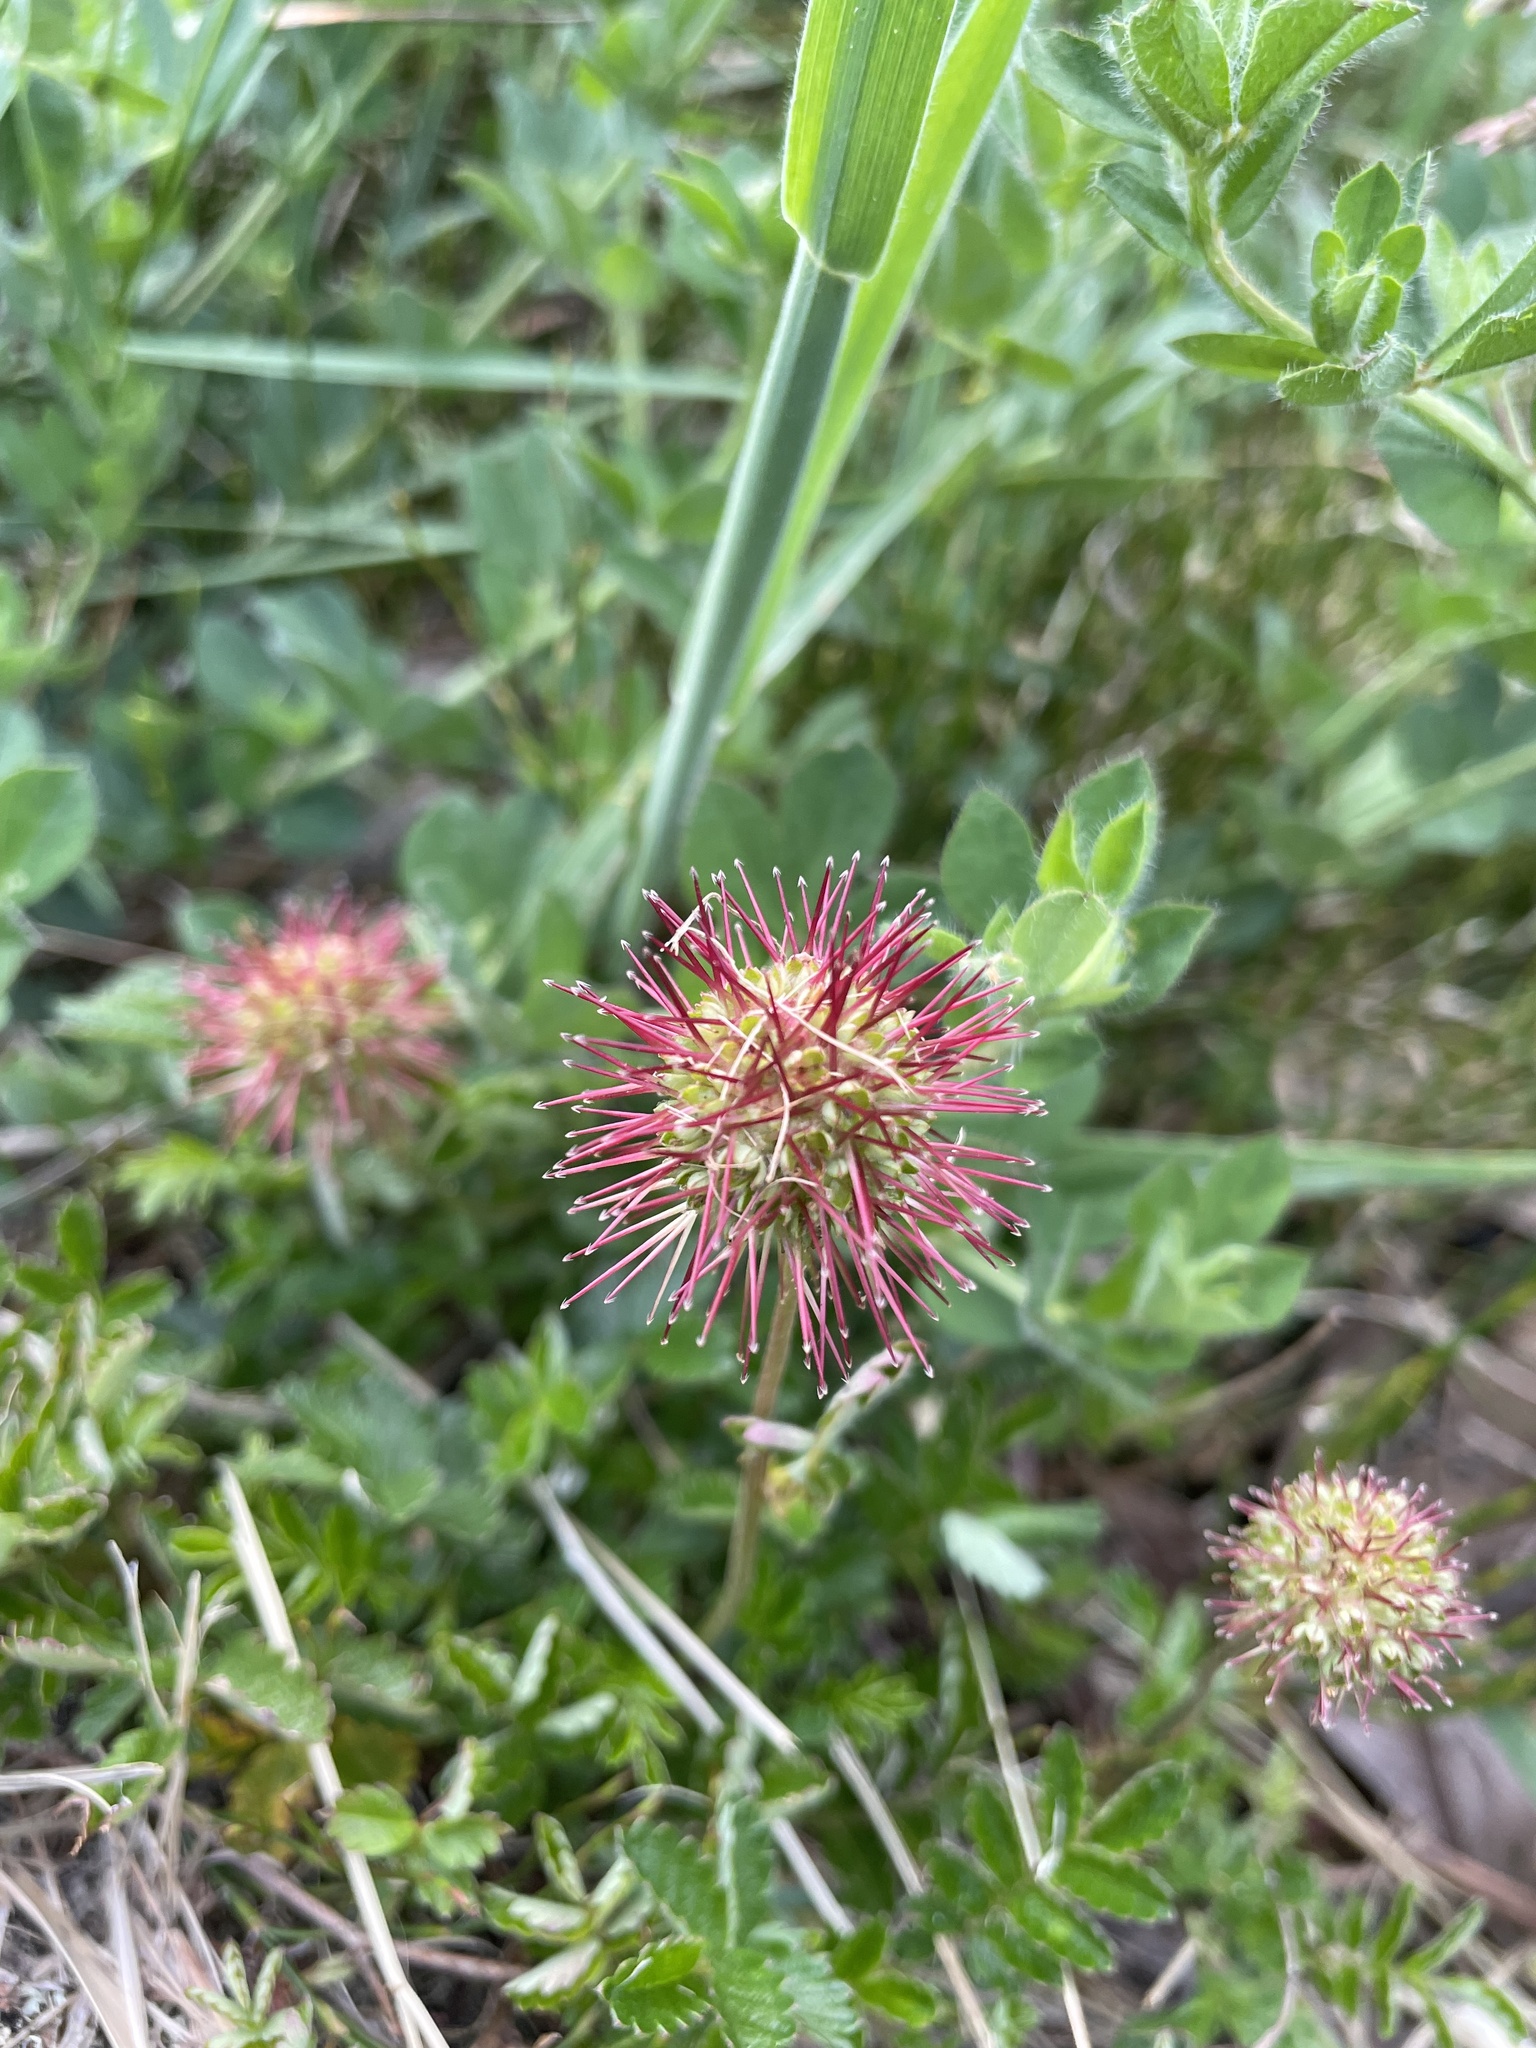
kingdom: Plantae
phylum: Tracheophyta
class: Magnoliopsida
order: Rosales
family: Rosaceae
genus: Acaena
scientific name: Acaena novae-zelandiae
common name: Pirri-pirri-bur
